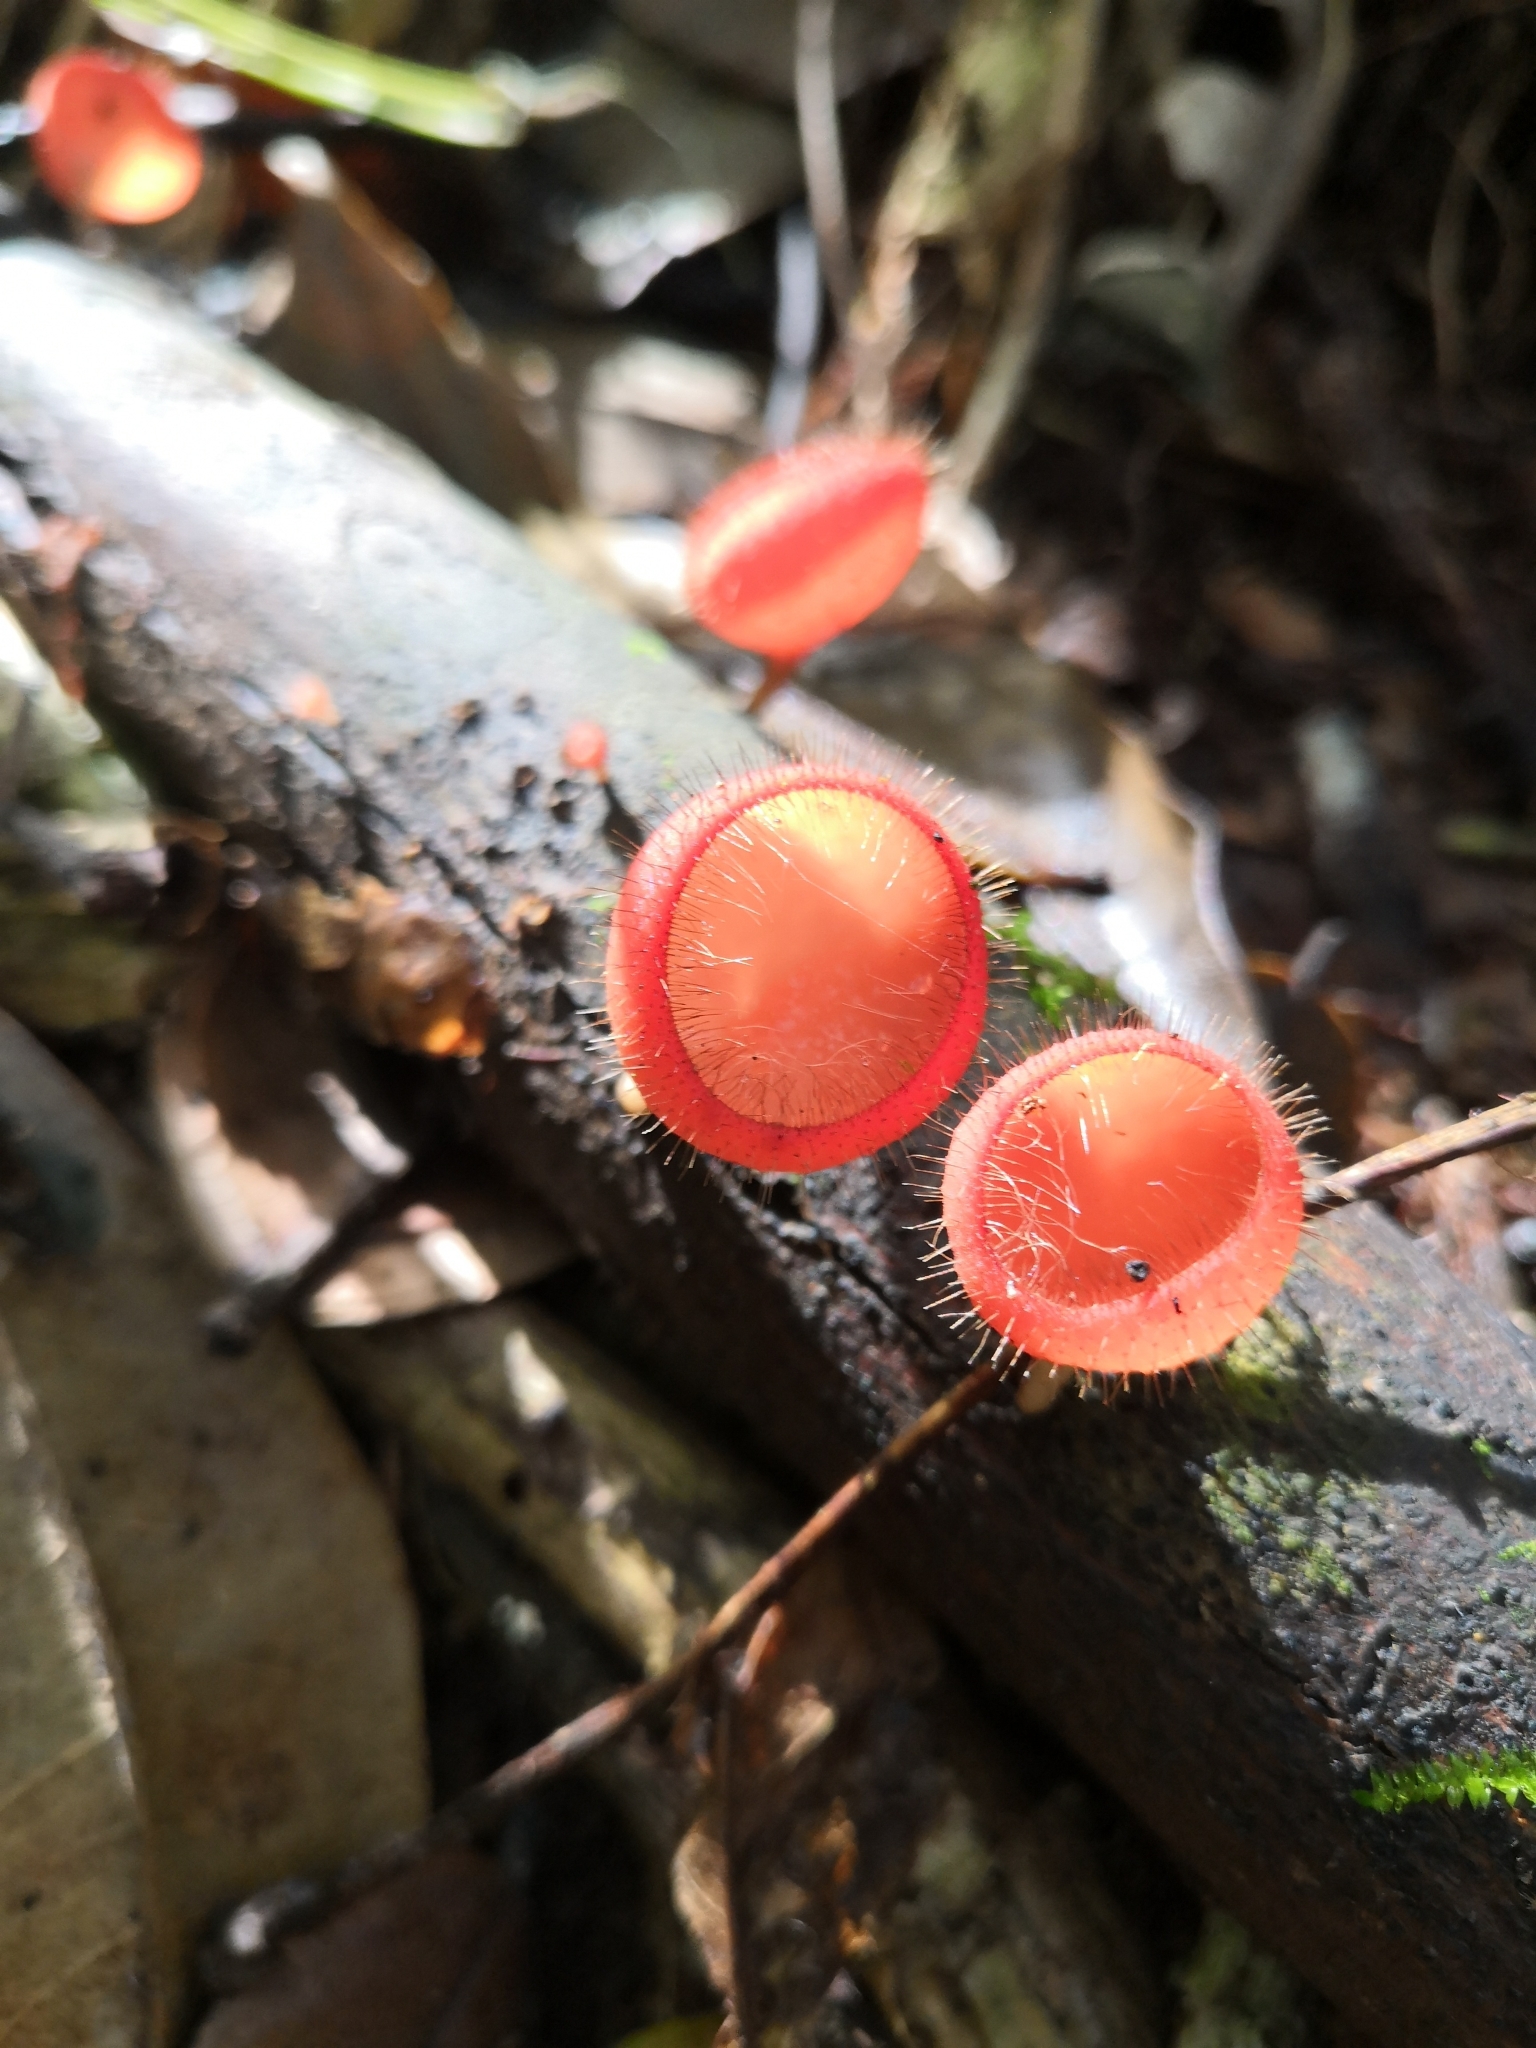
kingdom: Fungi
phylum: Ascomycota
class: Pezizomycetes
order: Pezizales
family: Sarcoscyphaceae
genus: Cookeina
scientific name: Cookeina tricholoma
